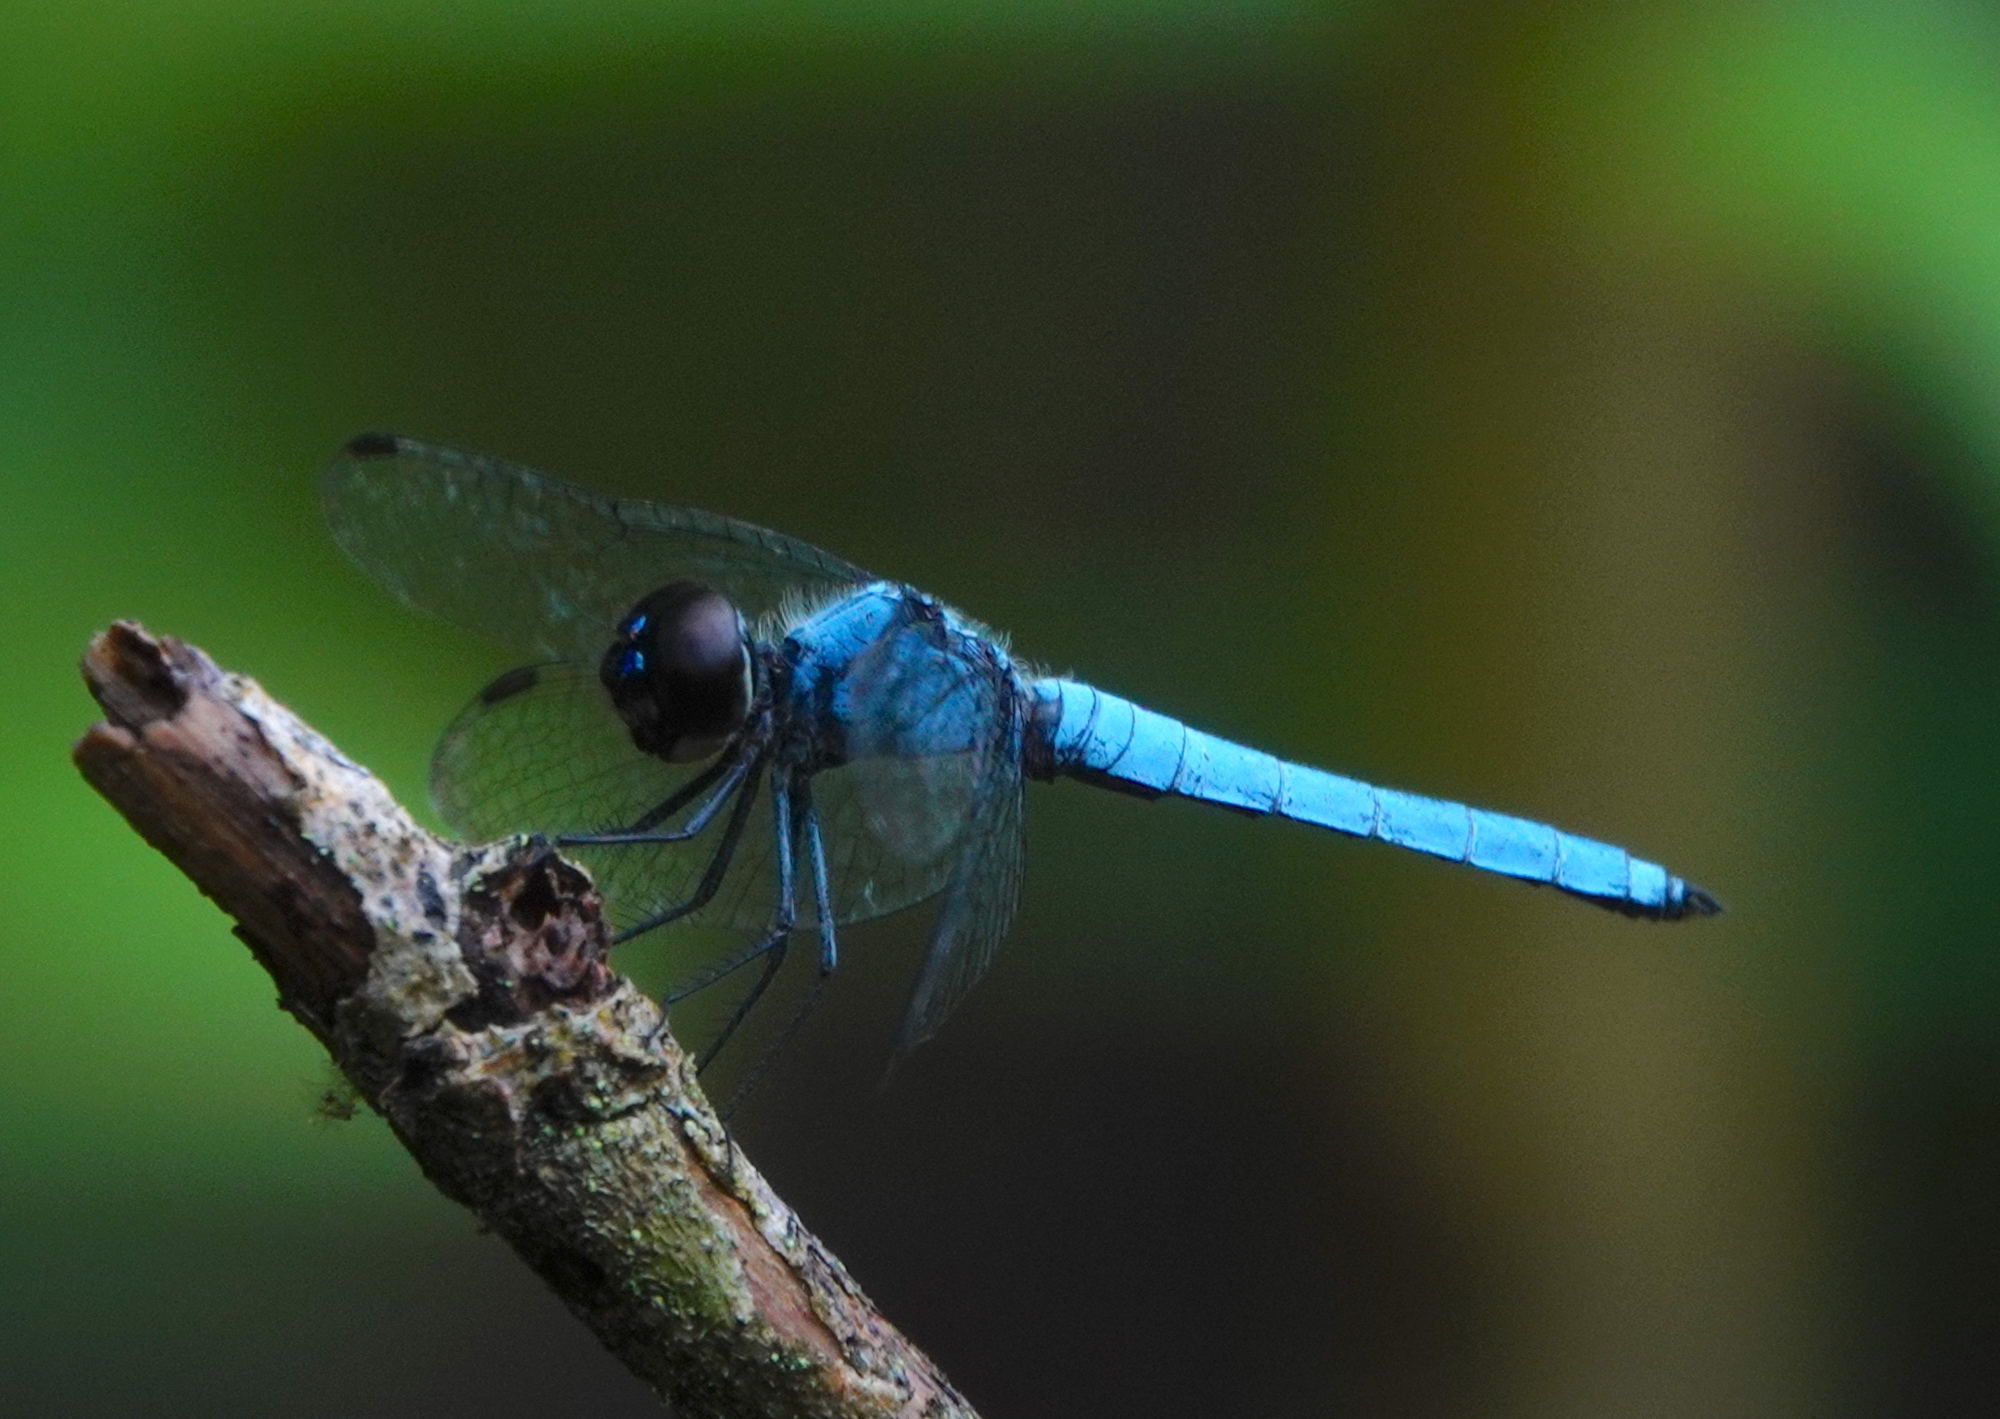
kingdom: Animalia
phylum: Arthropoda
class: Insecta
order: Odonata
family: Libellulidae
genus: Brachydiplax
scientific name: Brachydiplax duivenbodei
